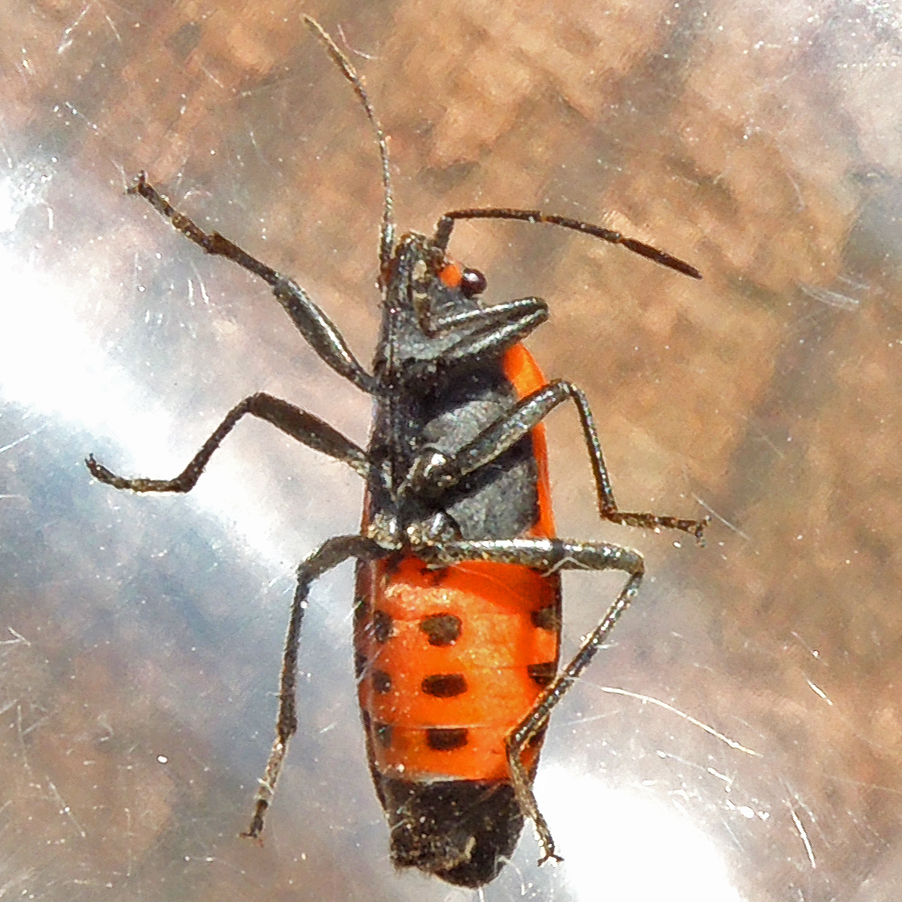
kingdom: Animalia
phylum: Arthropoda
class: Insecta
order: Hemiptera
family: Lygaeidae
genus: Lygaeus
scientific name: Lygaeus turcicus
